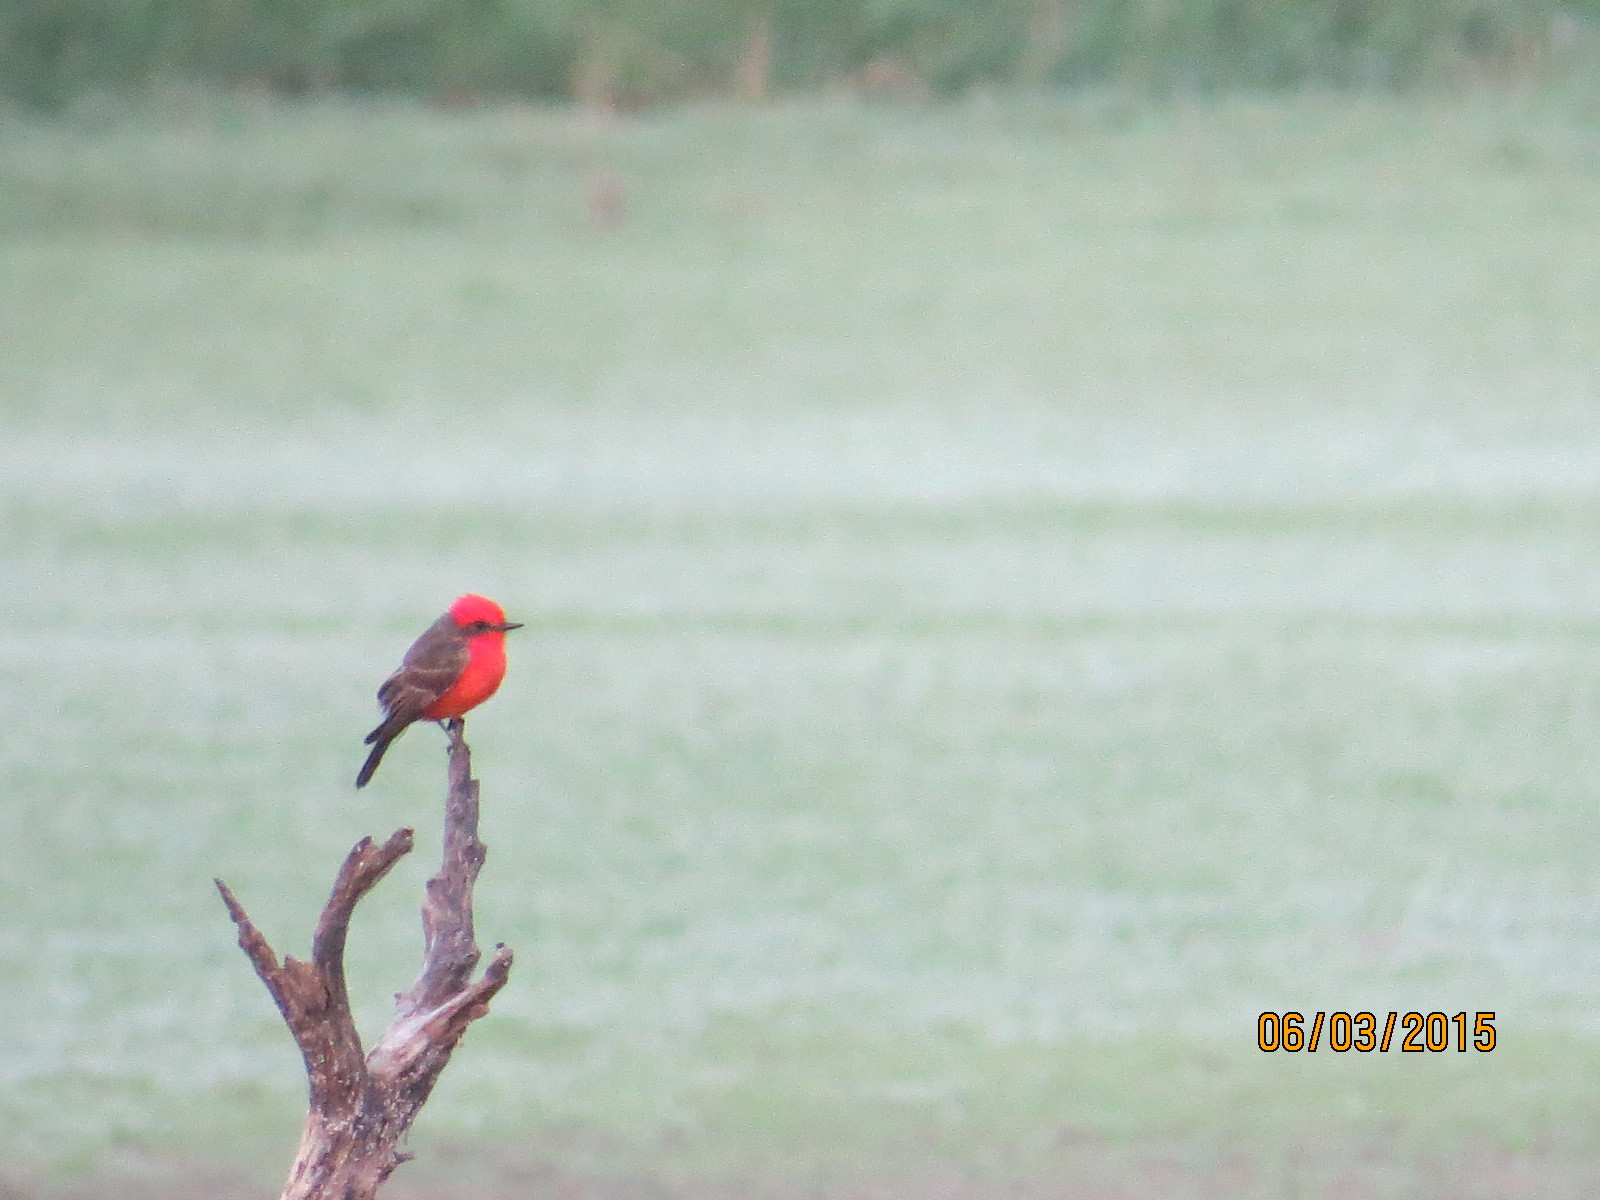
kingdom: Animalia
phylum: Chordata
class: Aves
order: Passeriformes
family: Tyrannidae
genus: Pyrocephalus
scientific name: Pyrocephalus rubinus
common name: Vermilion flycatcher
